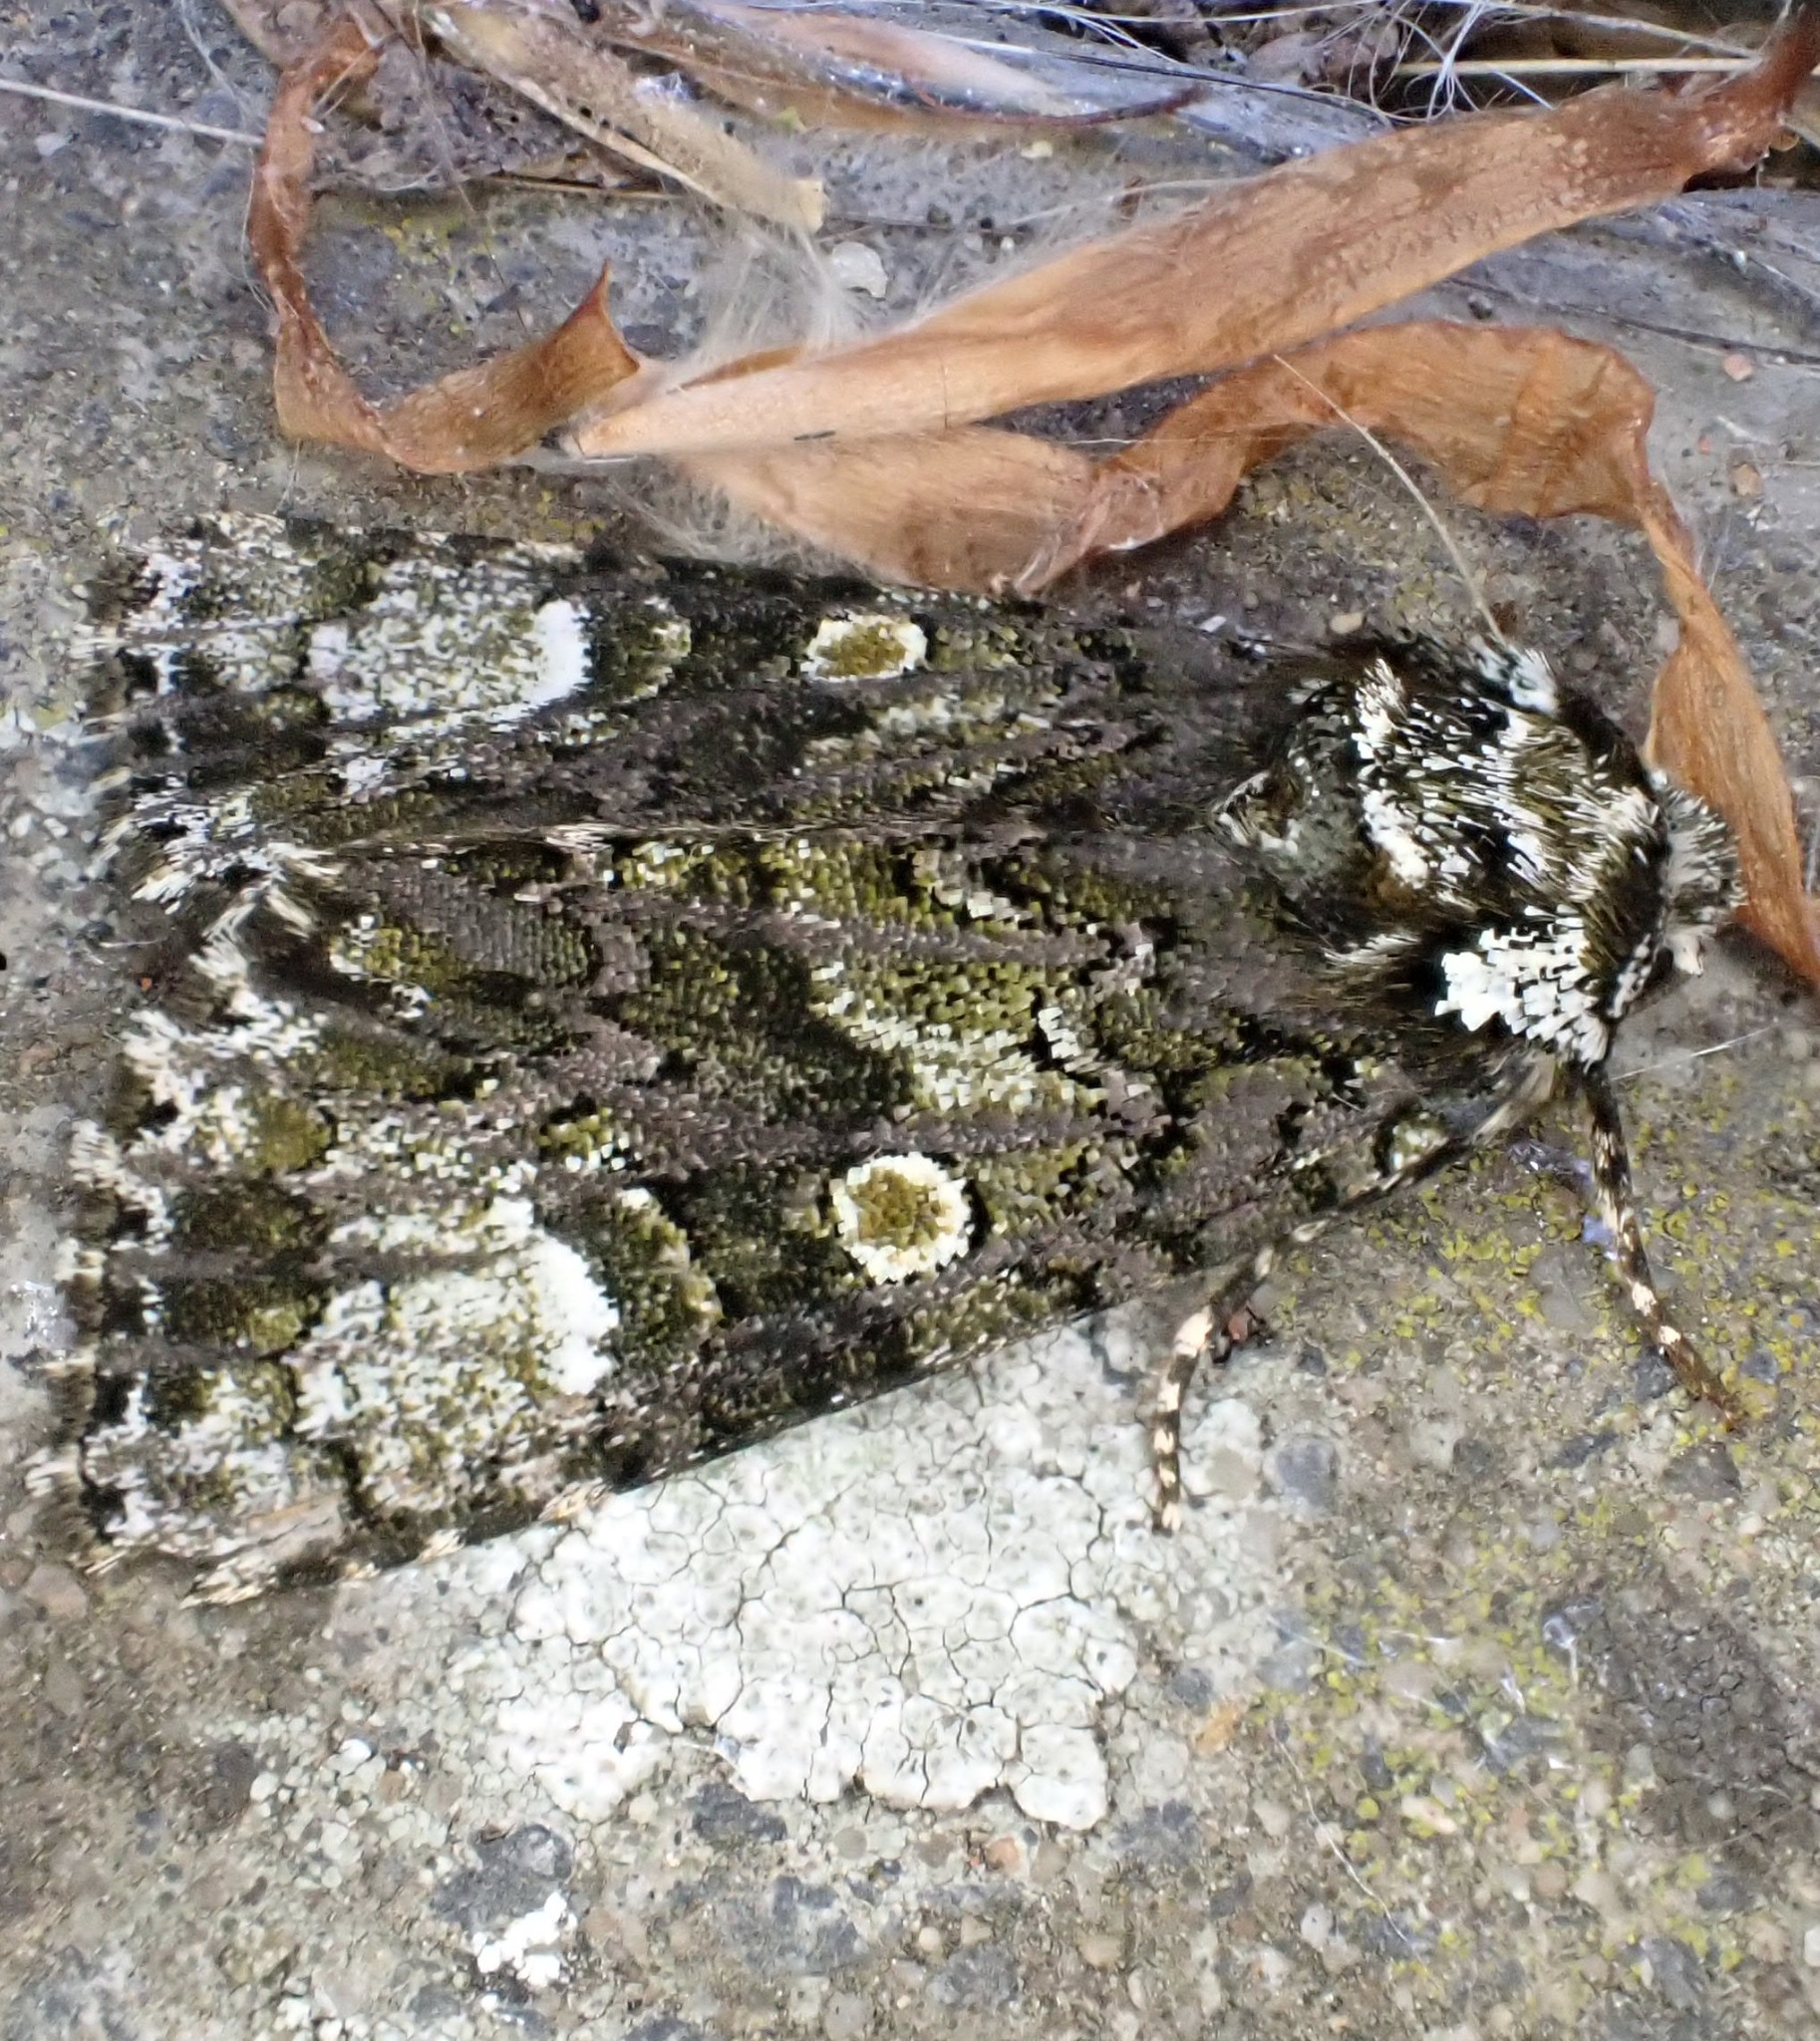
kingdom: Animalia
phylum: Arthropoda
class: Insecta
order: Lepidoptera
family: Noctuidae
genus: Craniophora
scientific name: Craniophora ligustri
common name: Coronet
